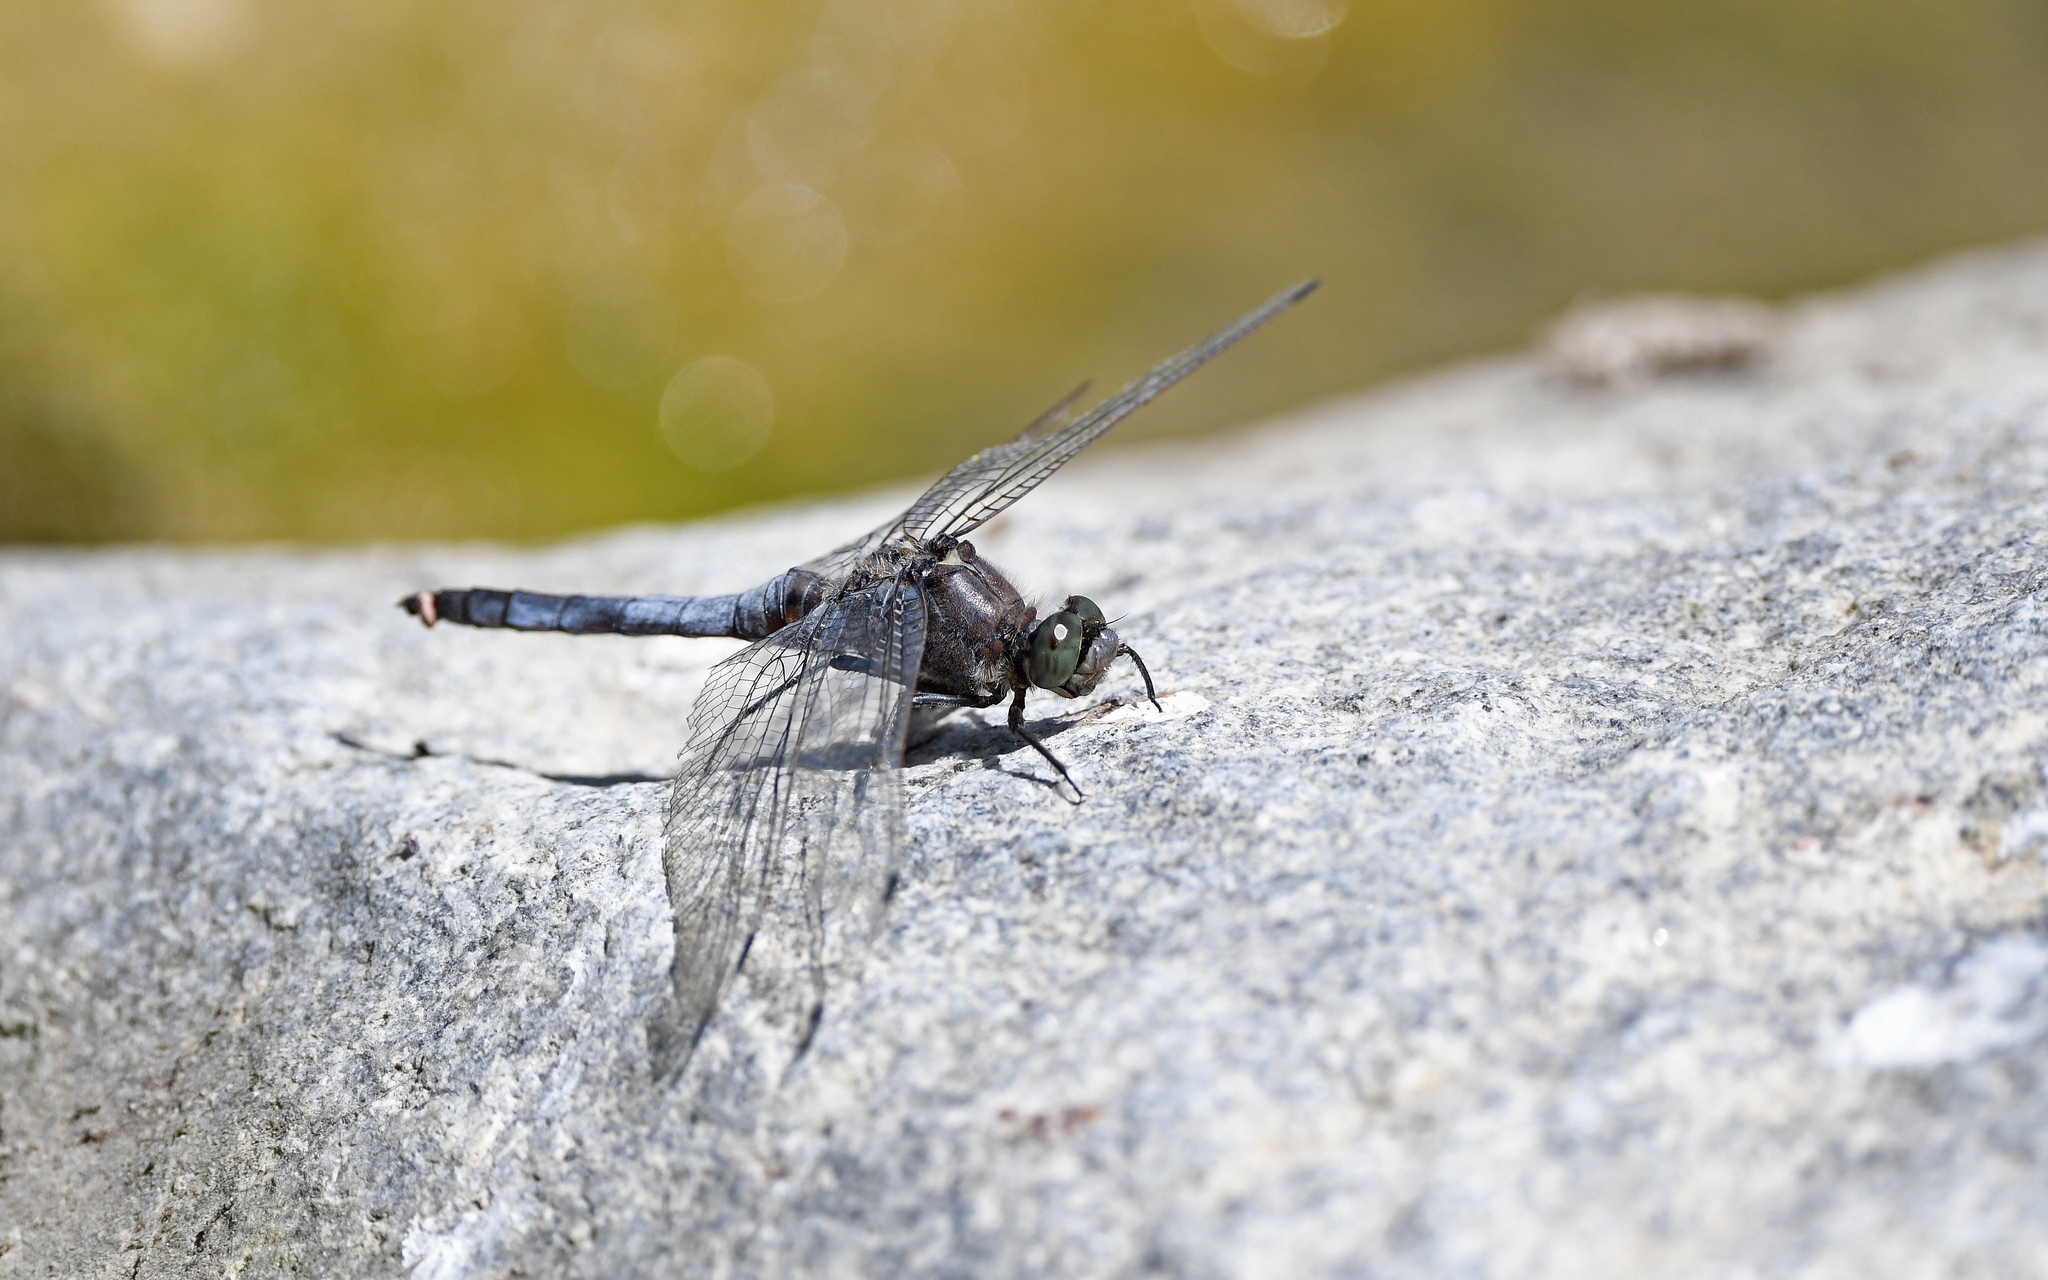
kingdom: Animalia
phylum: Arthropoda
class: Insecta
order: Odonata
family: Libellulidae
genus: Orthetrum
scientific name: Orthetrum cancellatum
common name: Black-tailed skimmer
